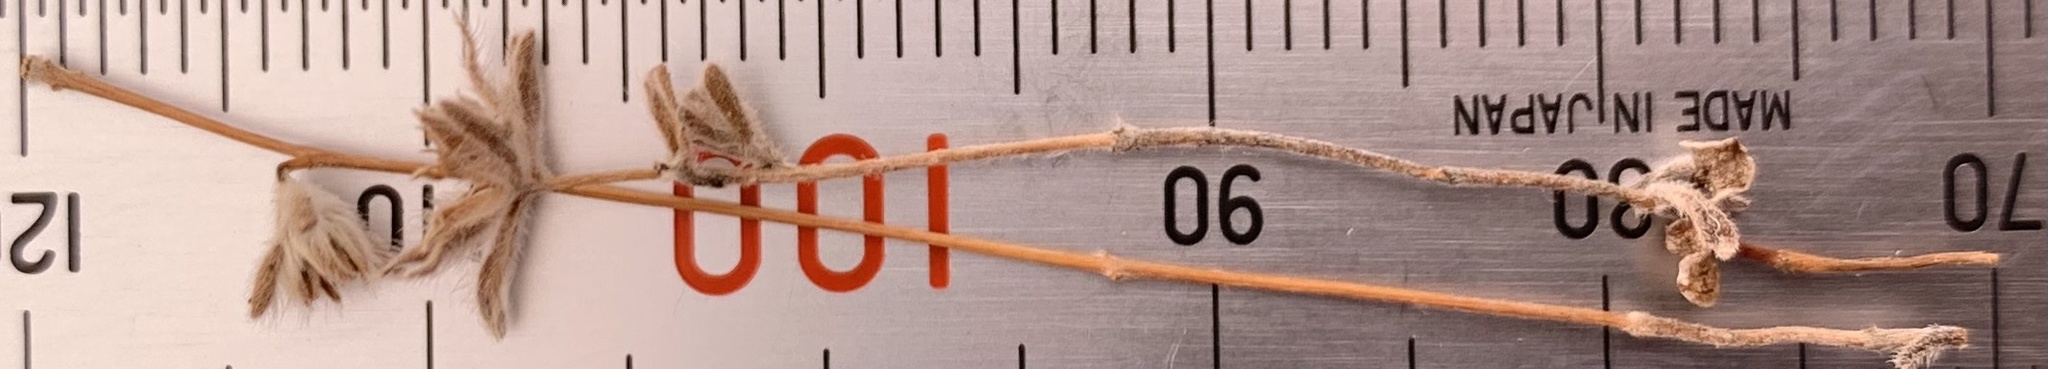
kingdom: Plantae
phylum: Tracheophyta
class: Magnoliopsida
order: Asterales
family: Asteraceae
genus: Lagophylla
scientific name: Lagophylla ramosissima
